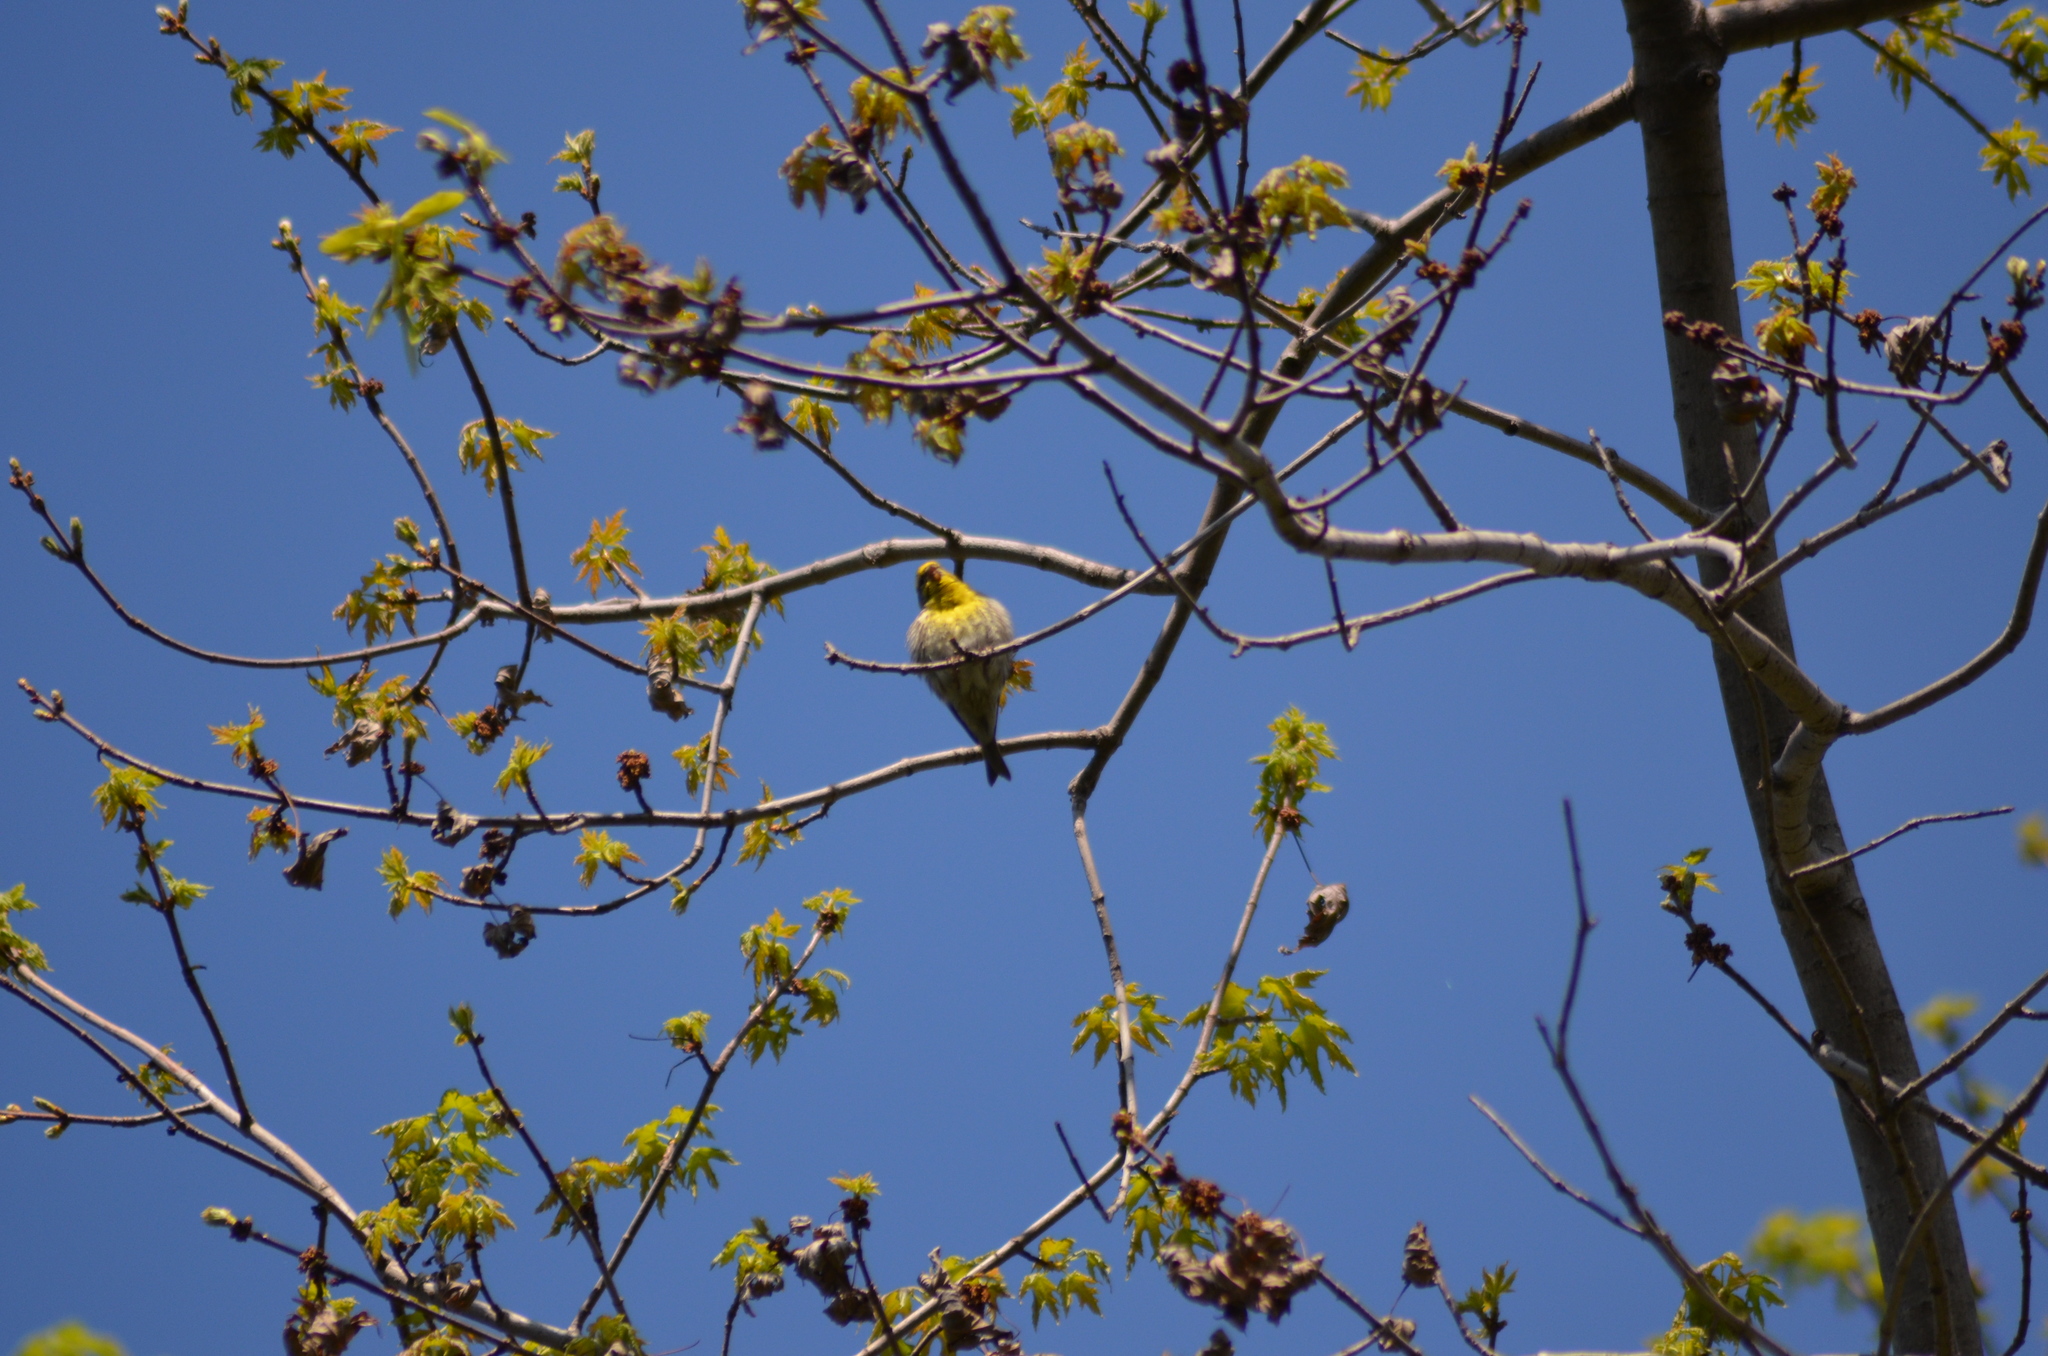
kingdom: Animalia
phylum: Chordata
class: Aves
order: Passeriformes
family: Fringillidae
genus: Serinus
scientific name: Serinus serinus
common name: European serin
